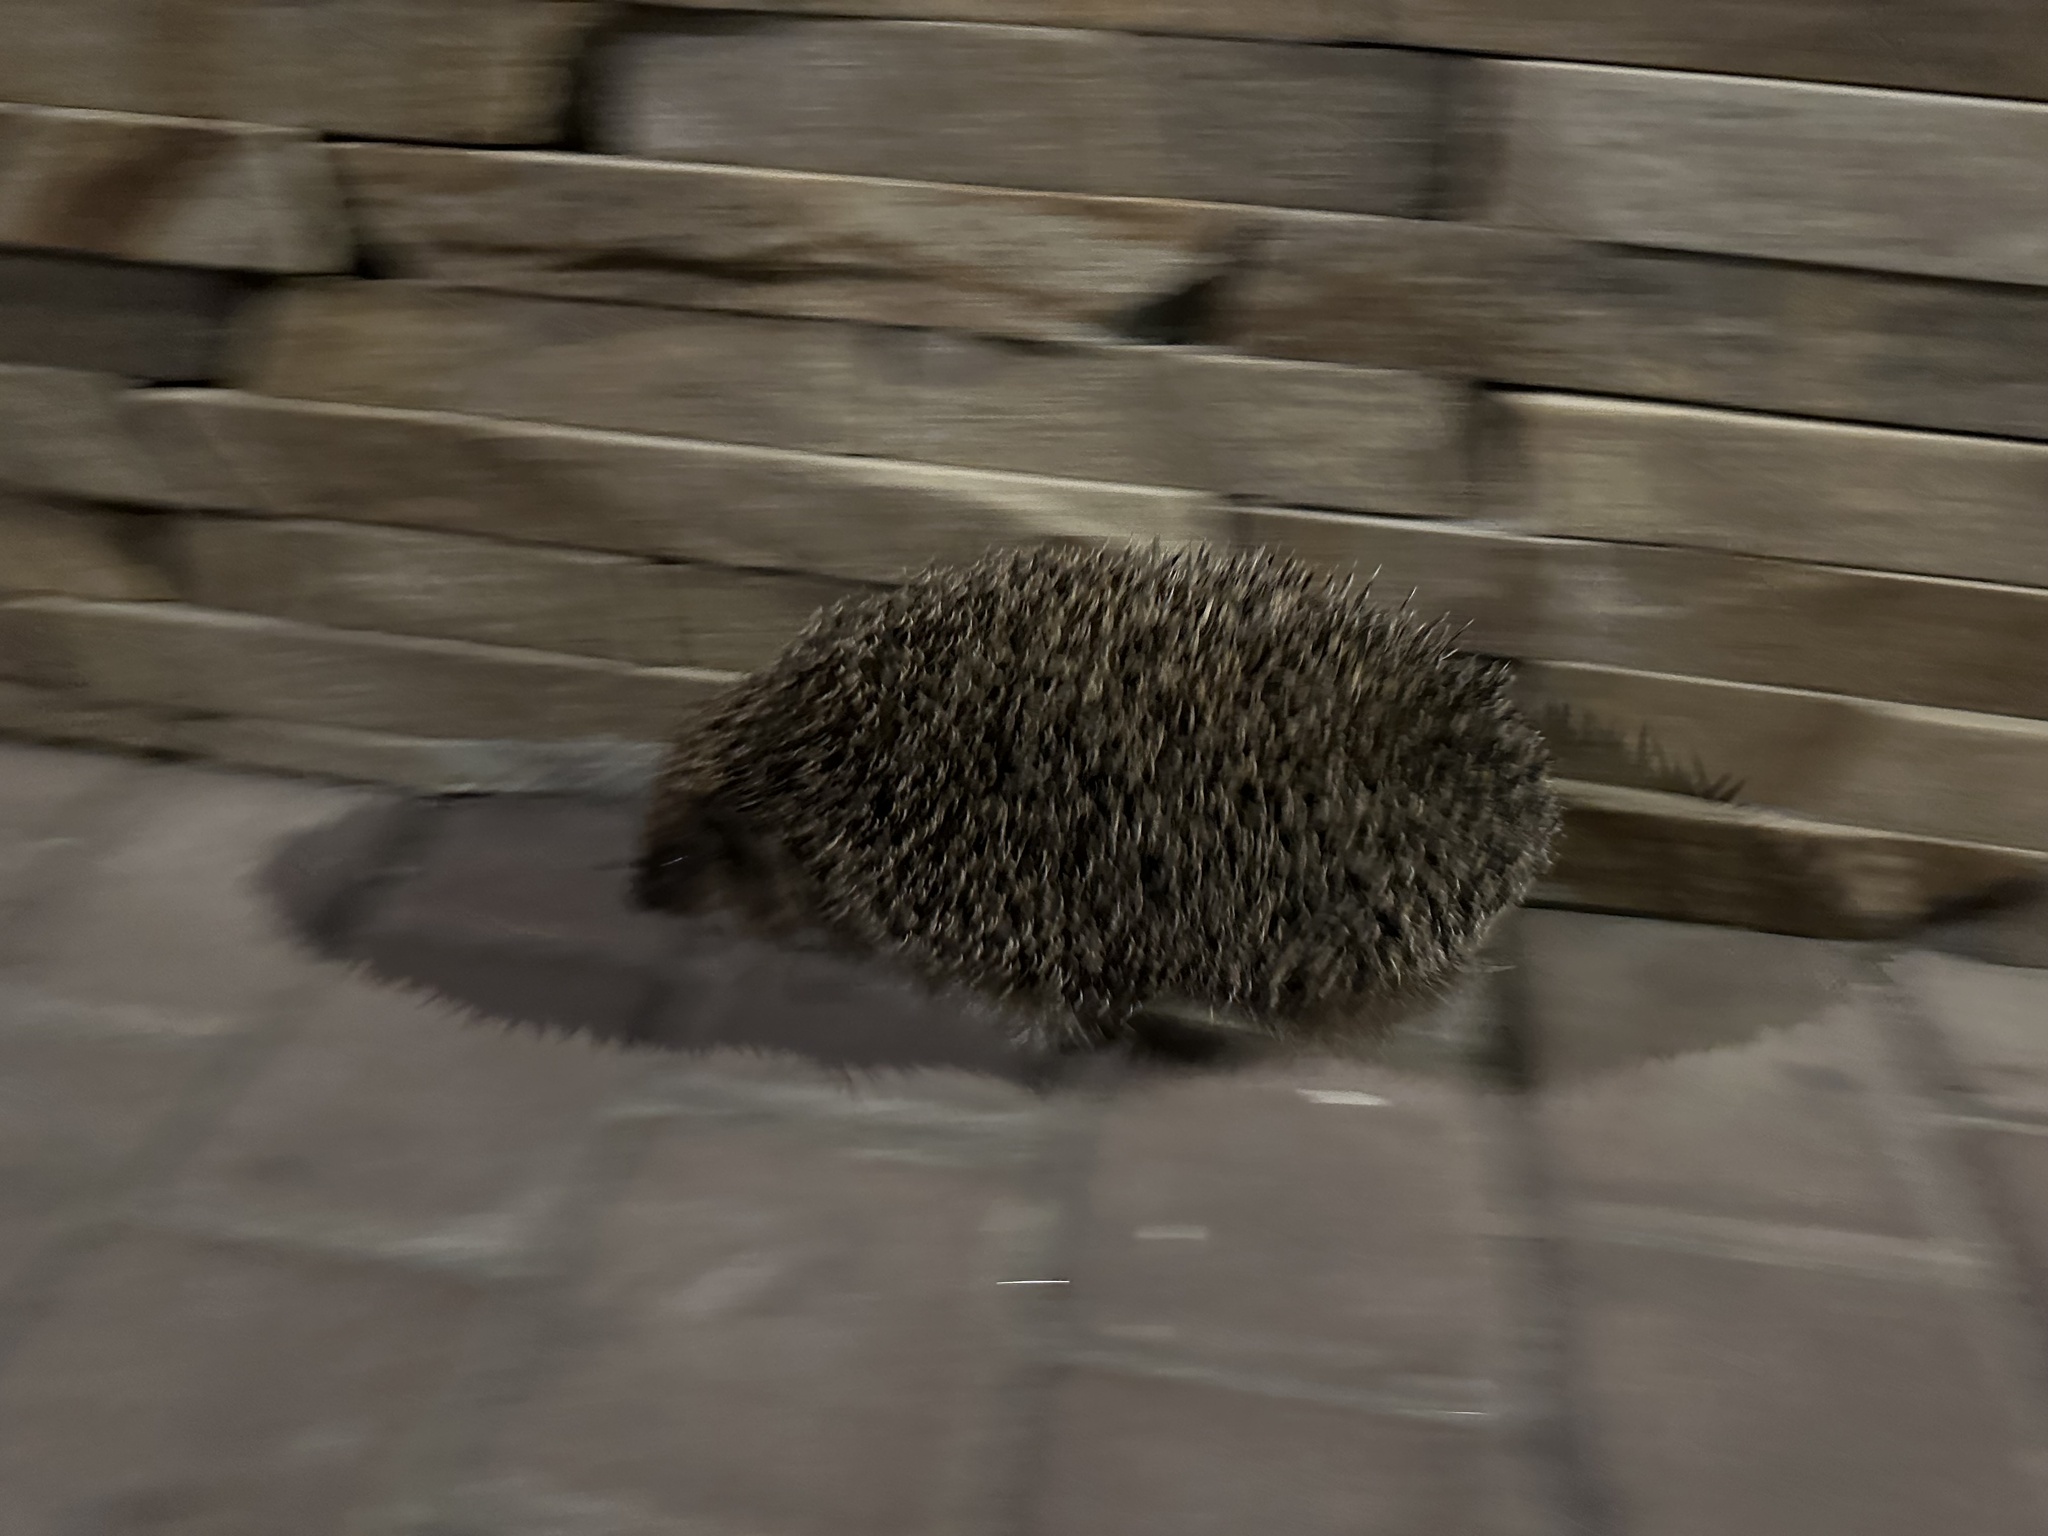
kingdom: Animalia
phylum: Chordata
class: Mammalia
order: Erinaceomorpha
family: Erinaceidae
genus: Erinaceus
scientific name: Erinaceus roumanicus
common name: Northern white-breasted hedgehog
